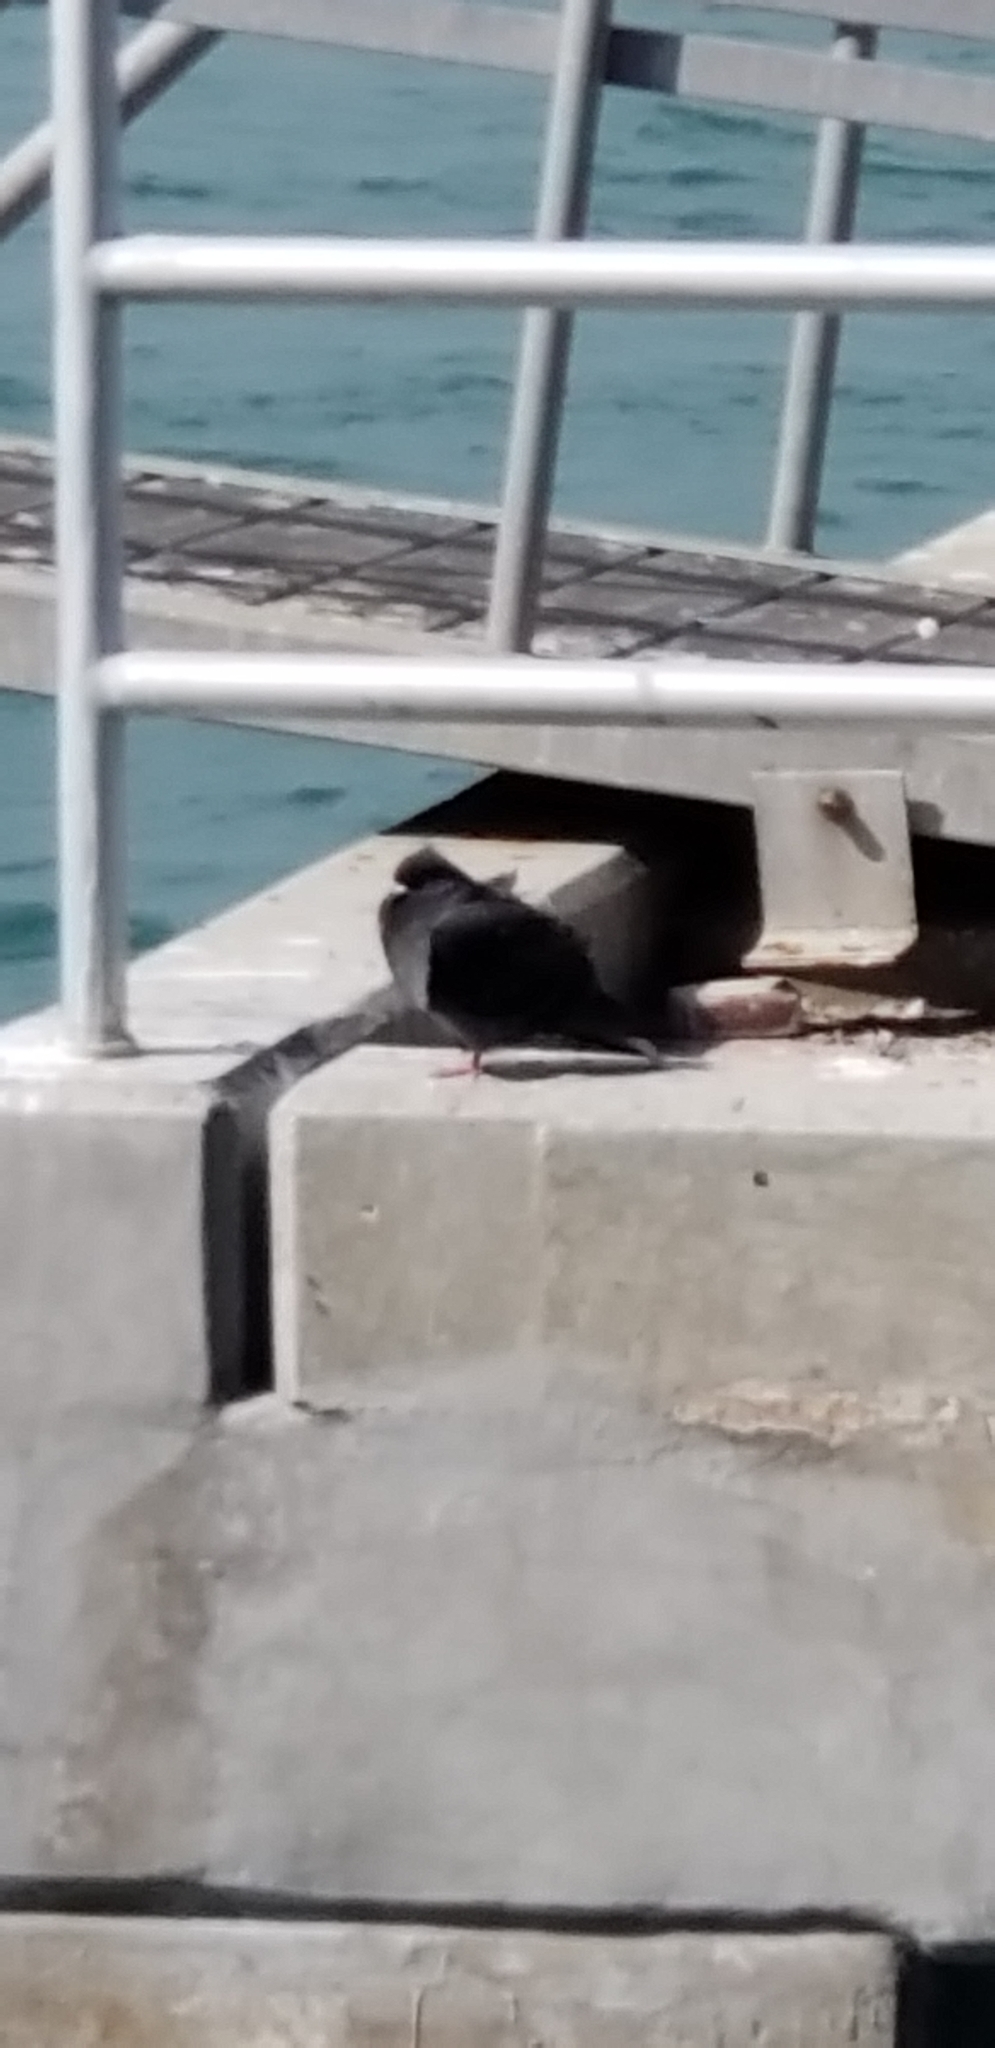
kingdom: Animalia
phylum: Chordata
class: Aves
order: Columbiformes
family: Columbidae
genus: Columba
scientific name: Columba livia
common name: Rock pigeon
